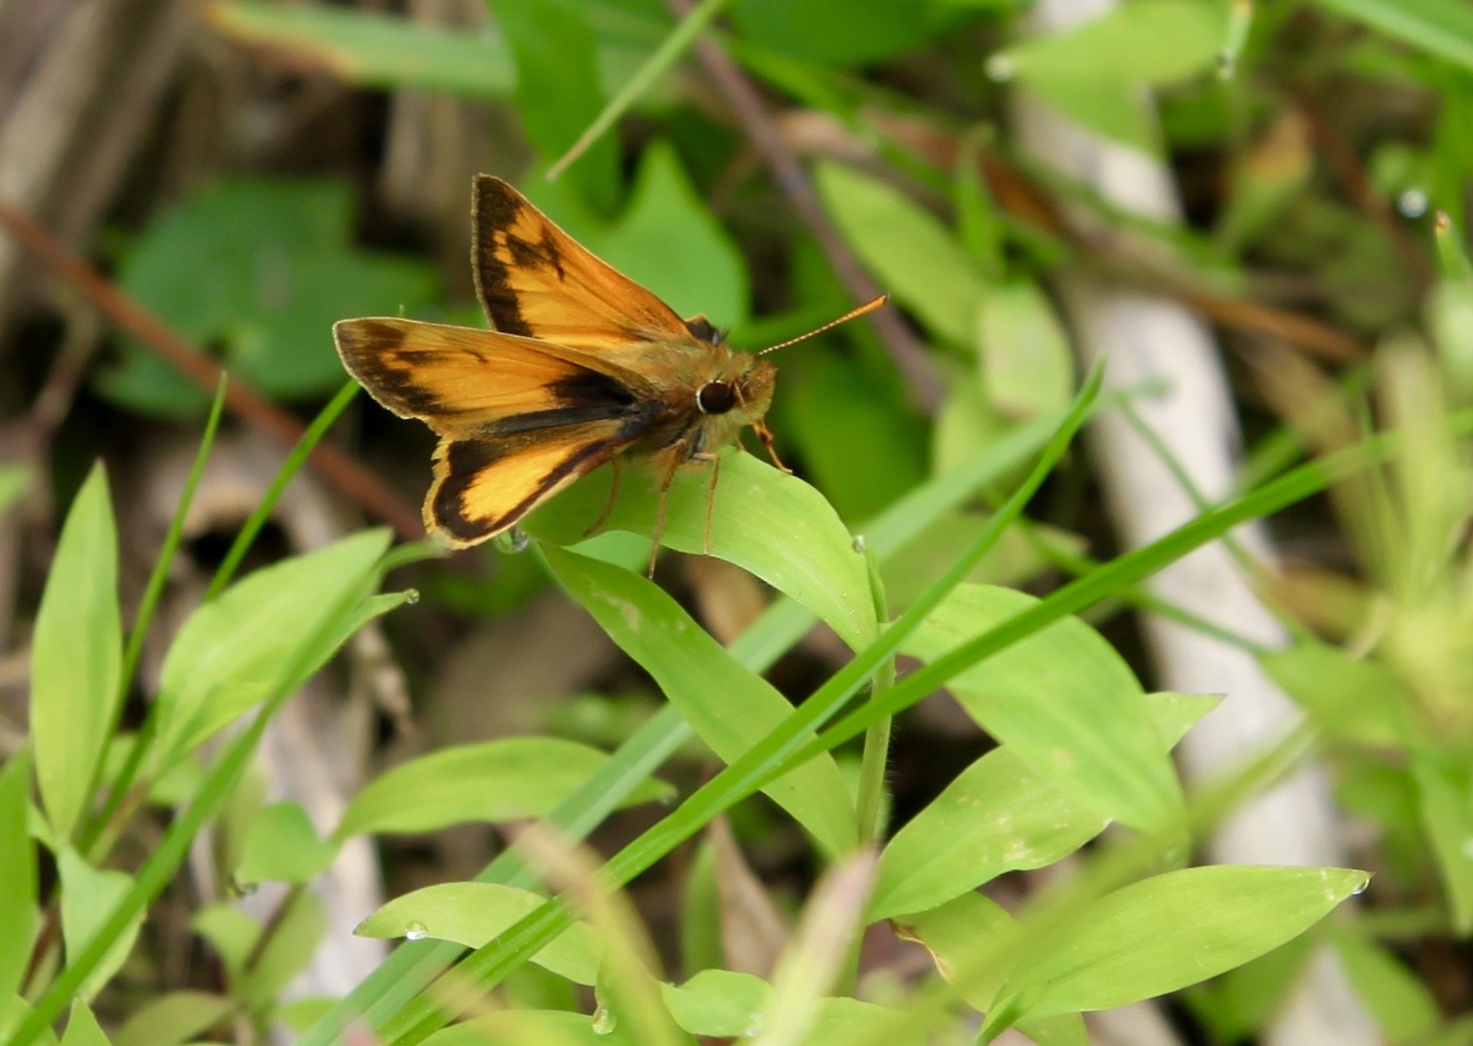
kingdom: Animalia
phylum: Arthropoda
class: Insecta
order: Lepidoptera
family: Hesperiidae
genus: Lon
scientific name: Lon zabulon
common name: Zabulon skipper
